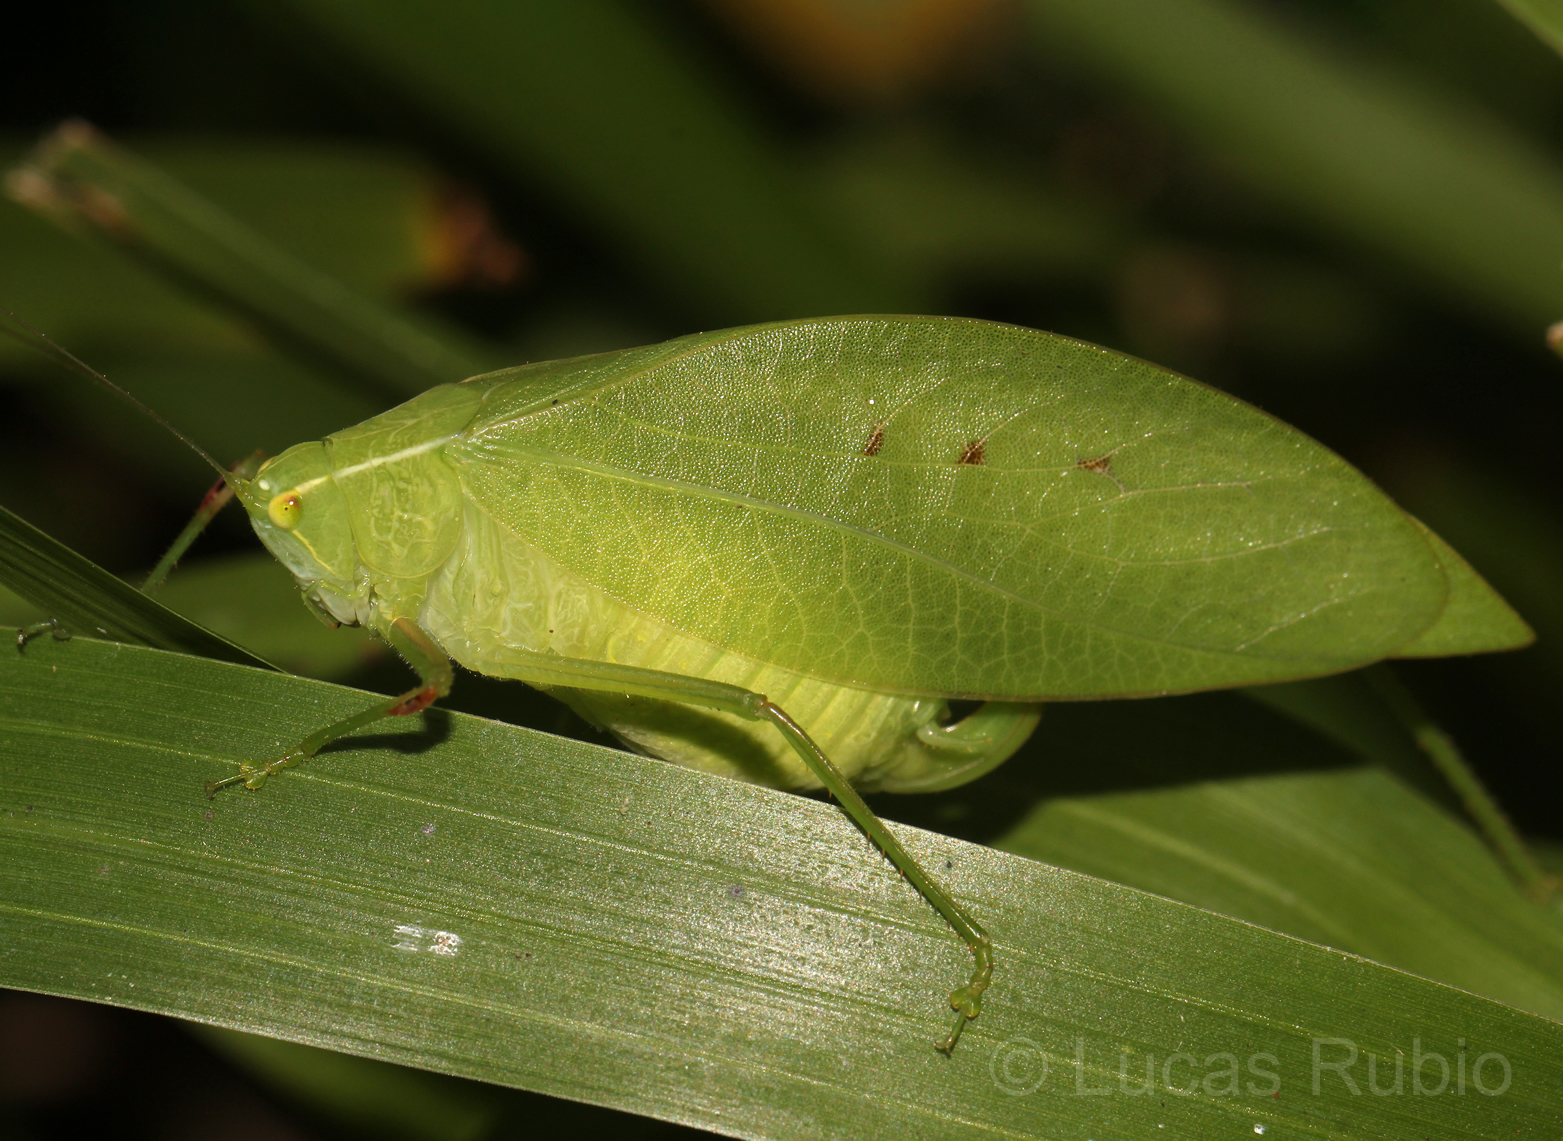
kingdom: Animalia
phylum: Arthropoda
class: Insecta
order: Orthoptera
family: Tettigoniidae
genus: Phylloptera
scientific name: Phylloptera fosteri
